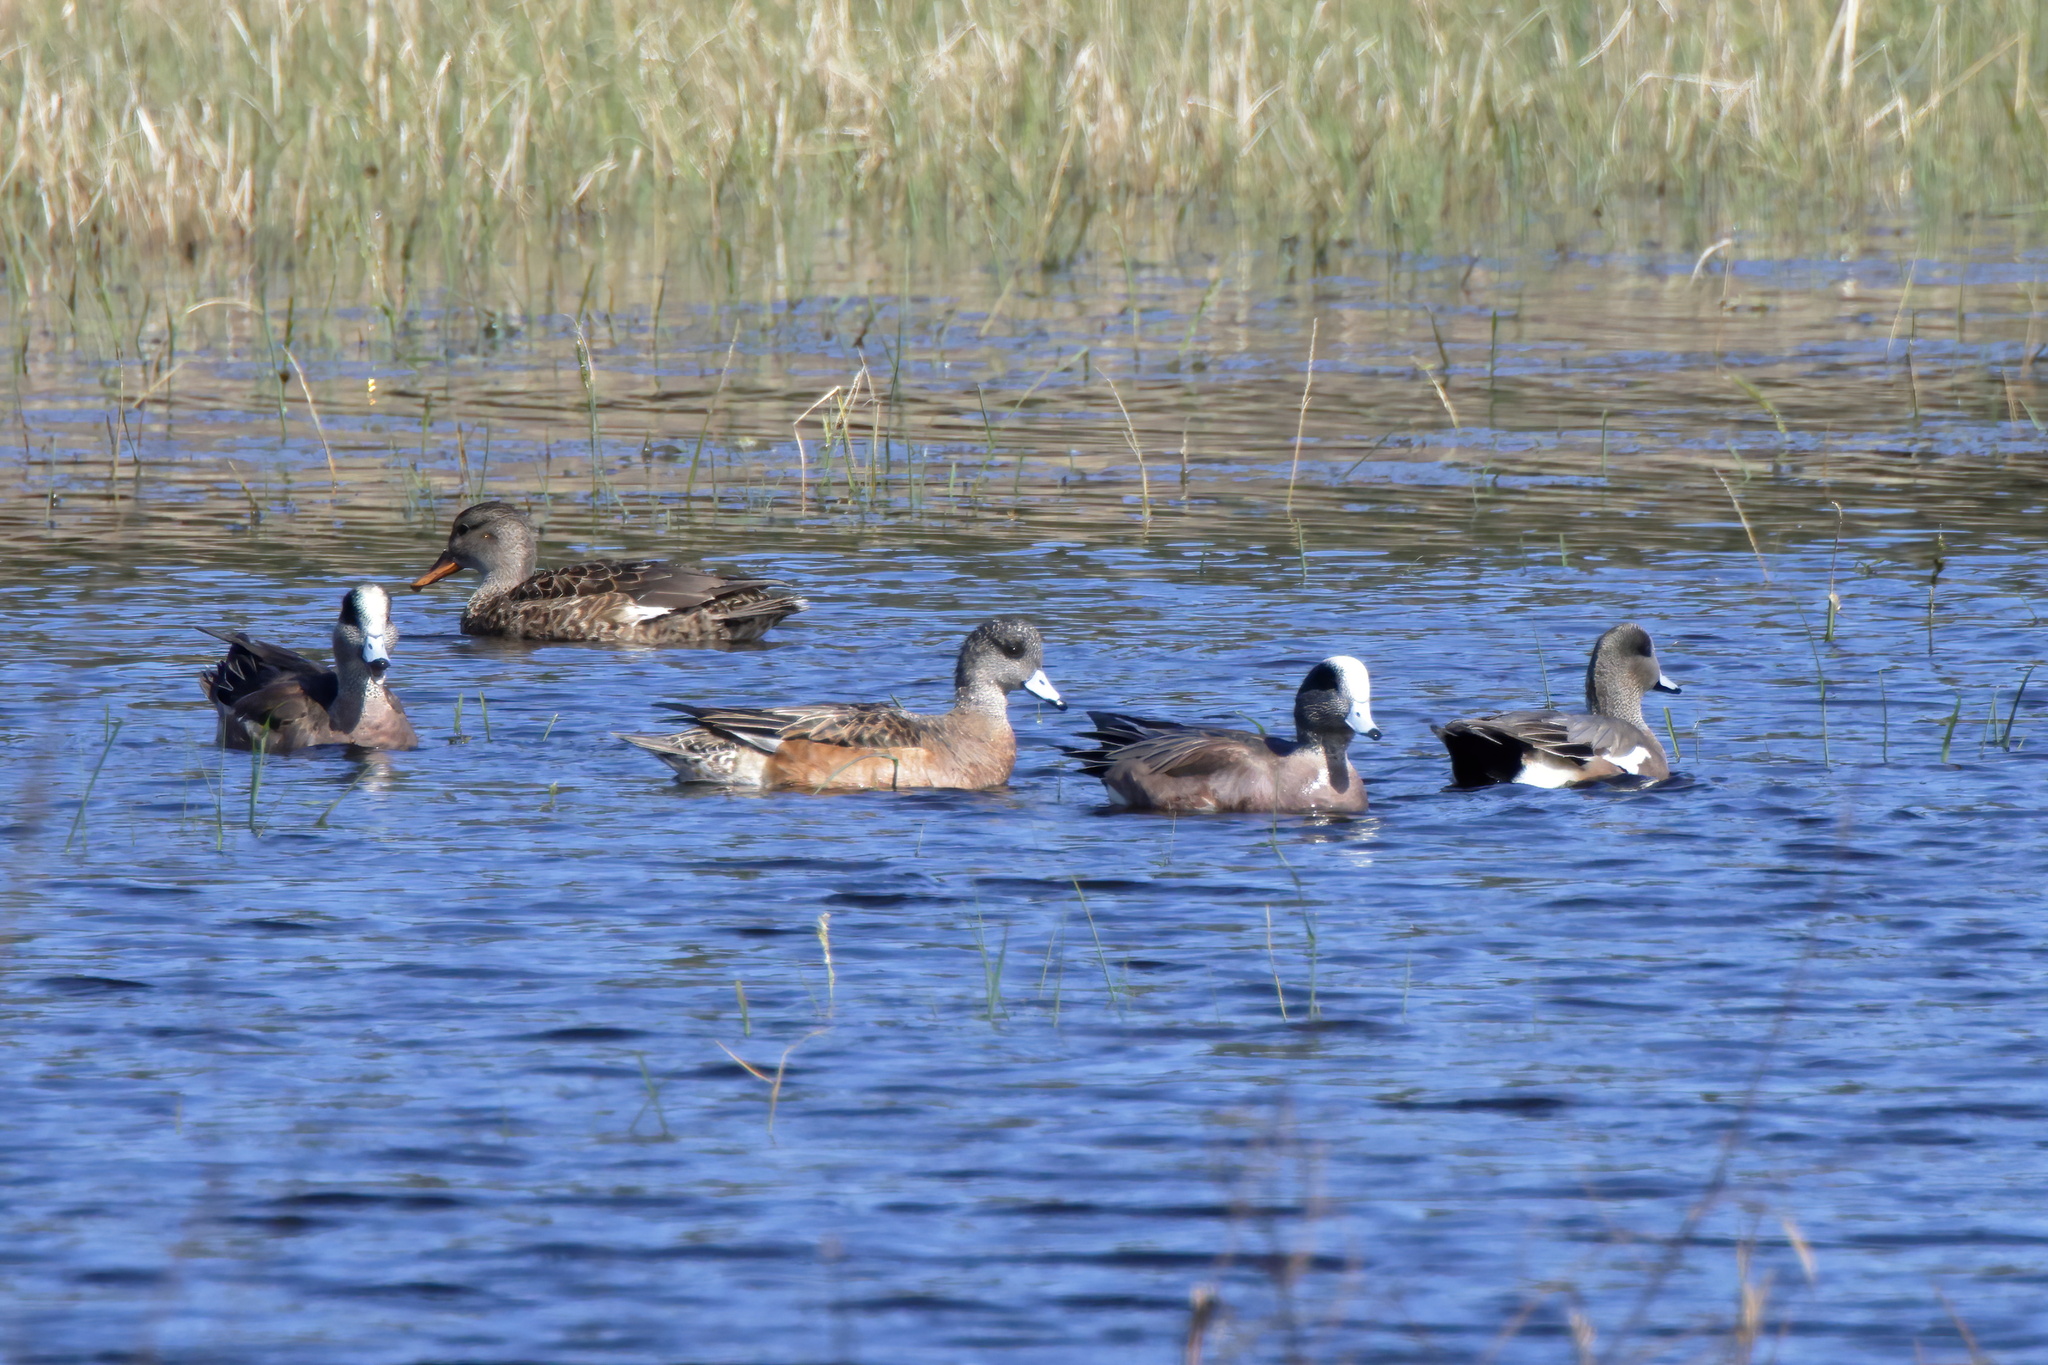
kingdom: Animalia
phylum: Chordata
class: Aves
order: Anseriformes
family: Anatidae
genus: Mareca
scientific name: Mareca americana
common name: American wigeon
